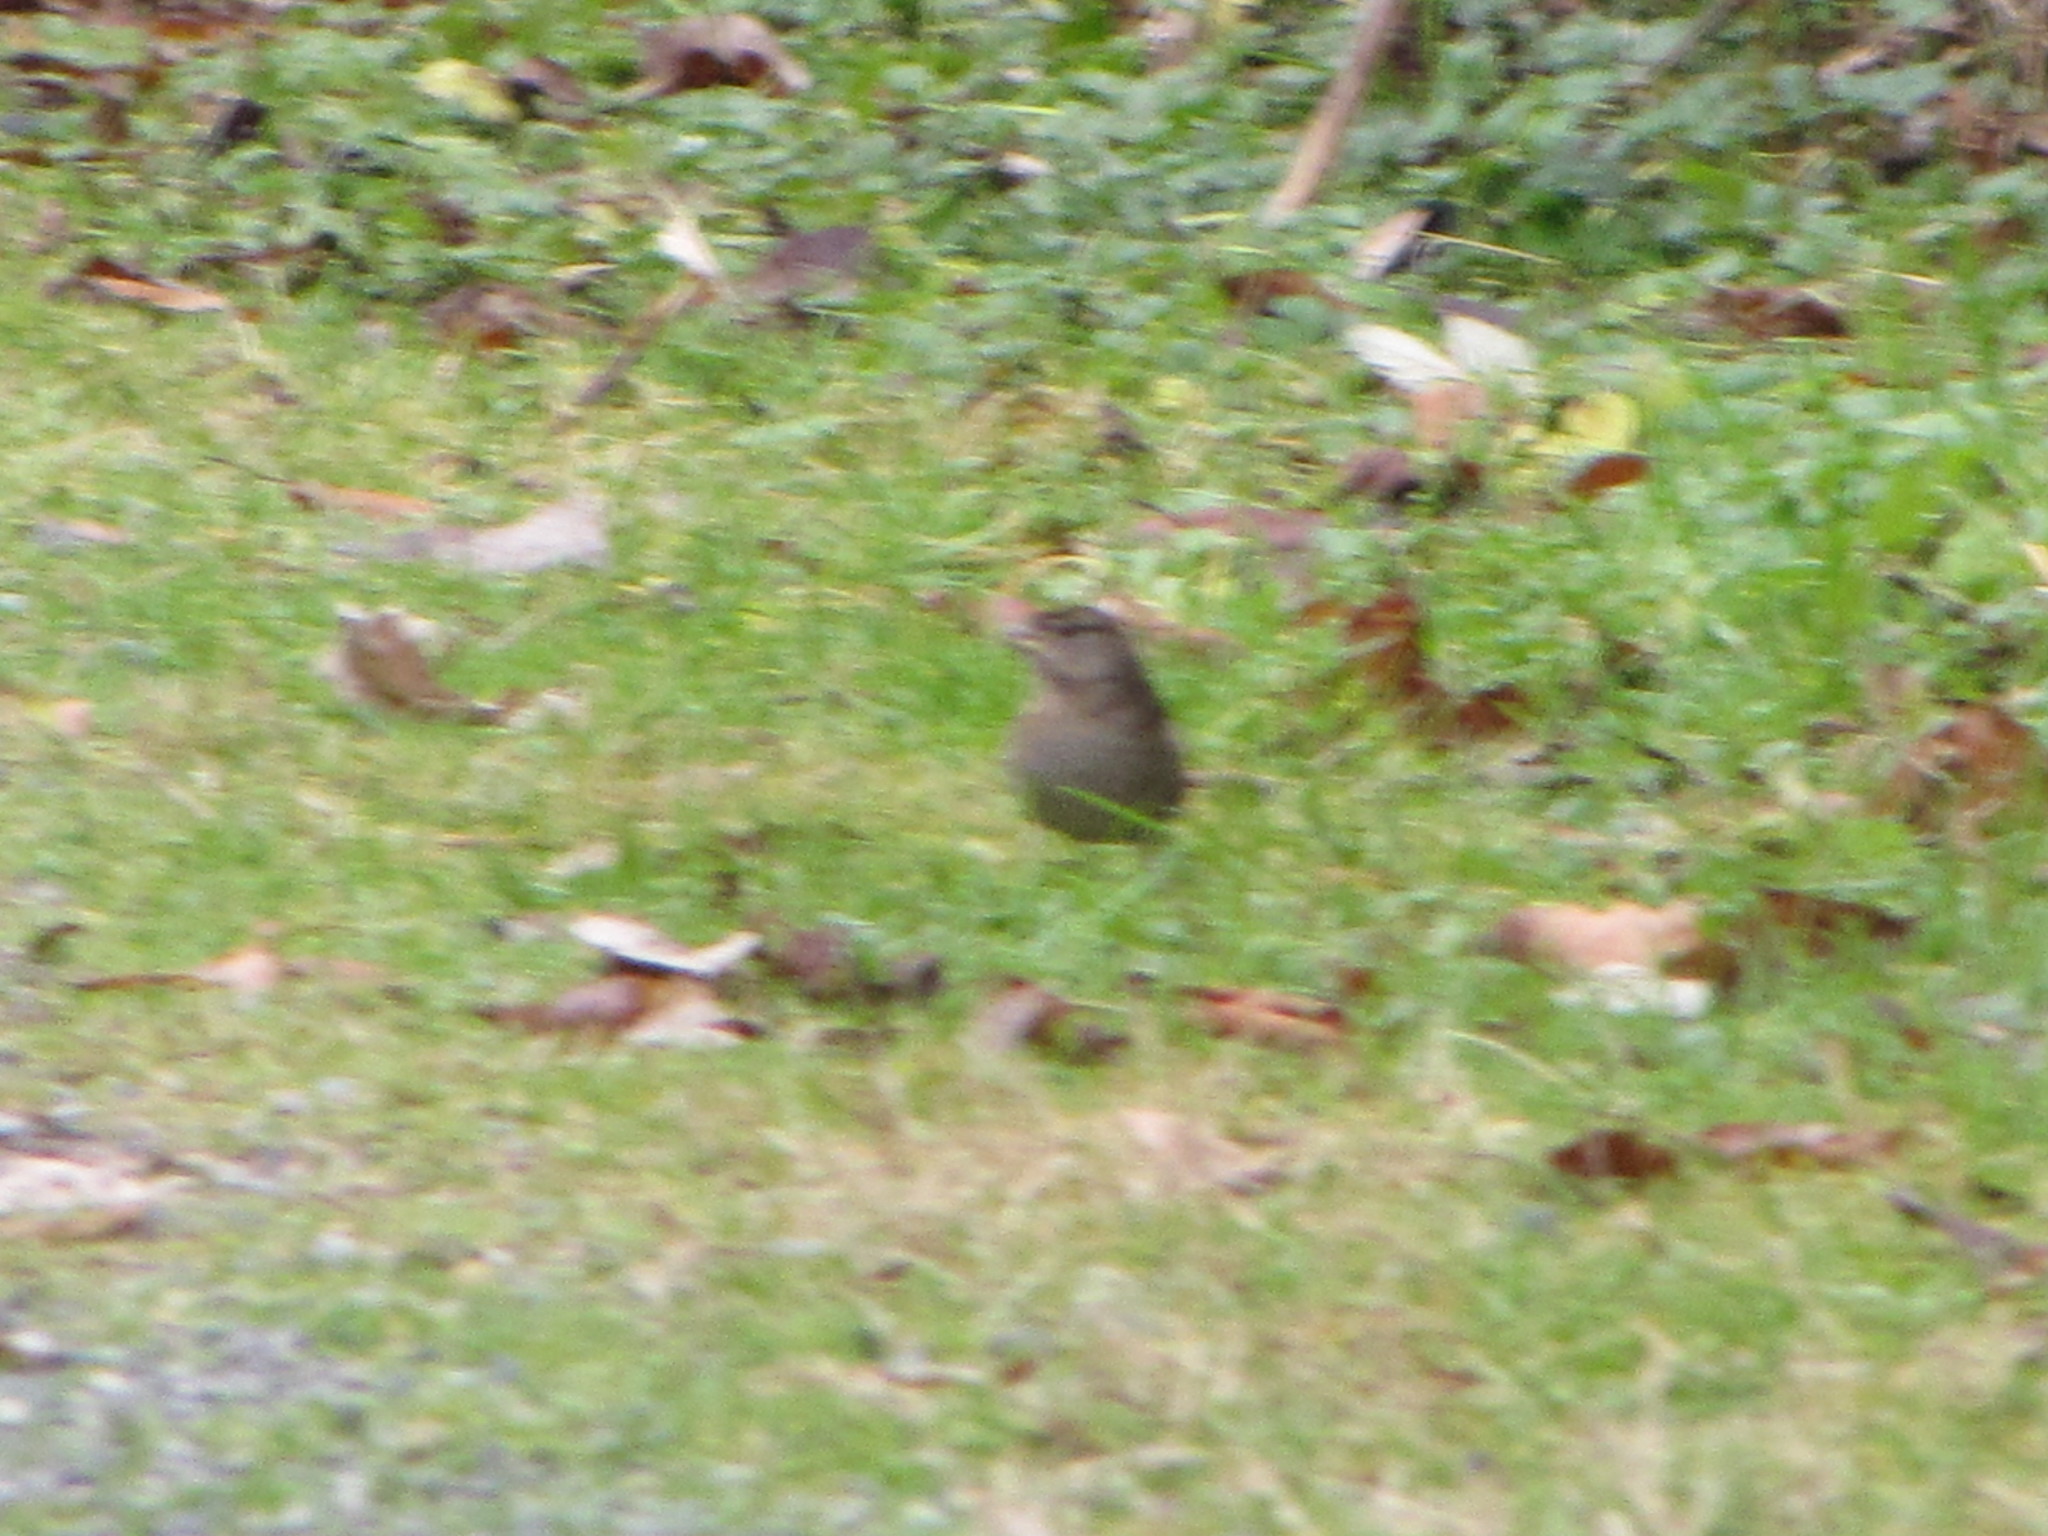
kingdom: Animalia
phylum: Chordata
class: Aves
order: Passeriformes
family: Passerellidae
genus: Zonotrichia
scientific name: Zonotrichia atricapilla
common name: Golden-crowned sparrow
